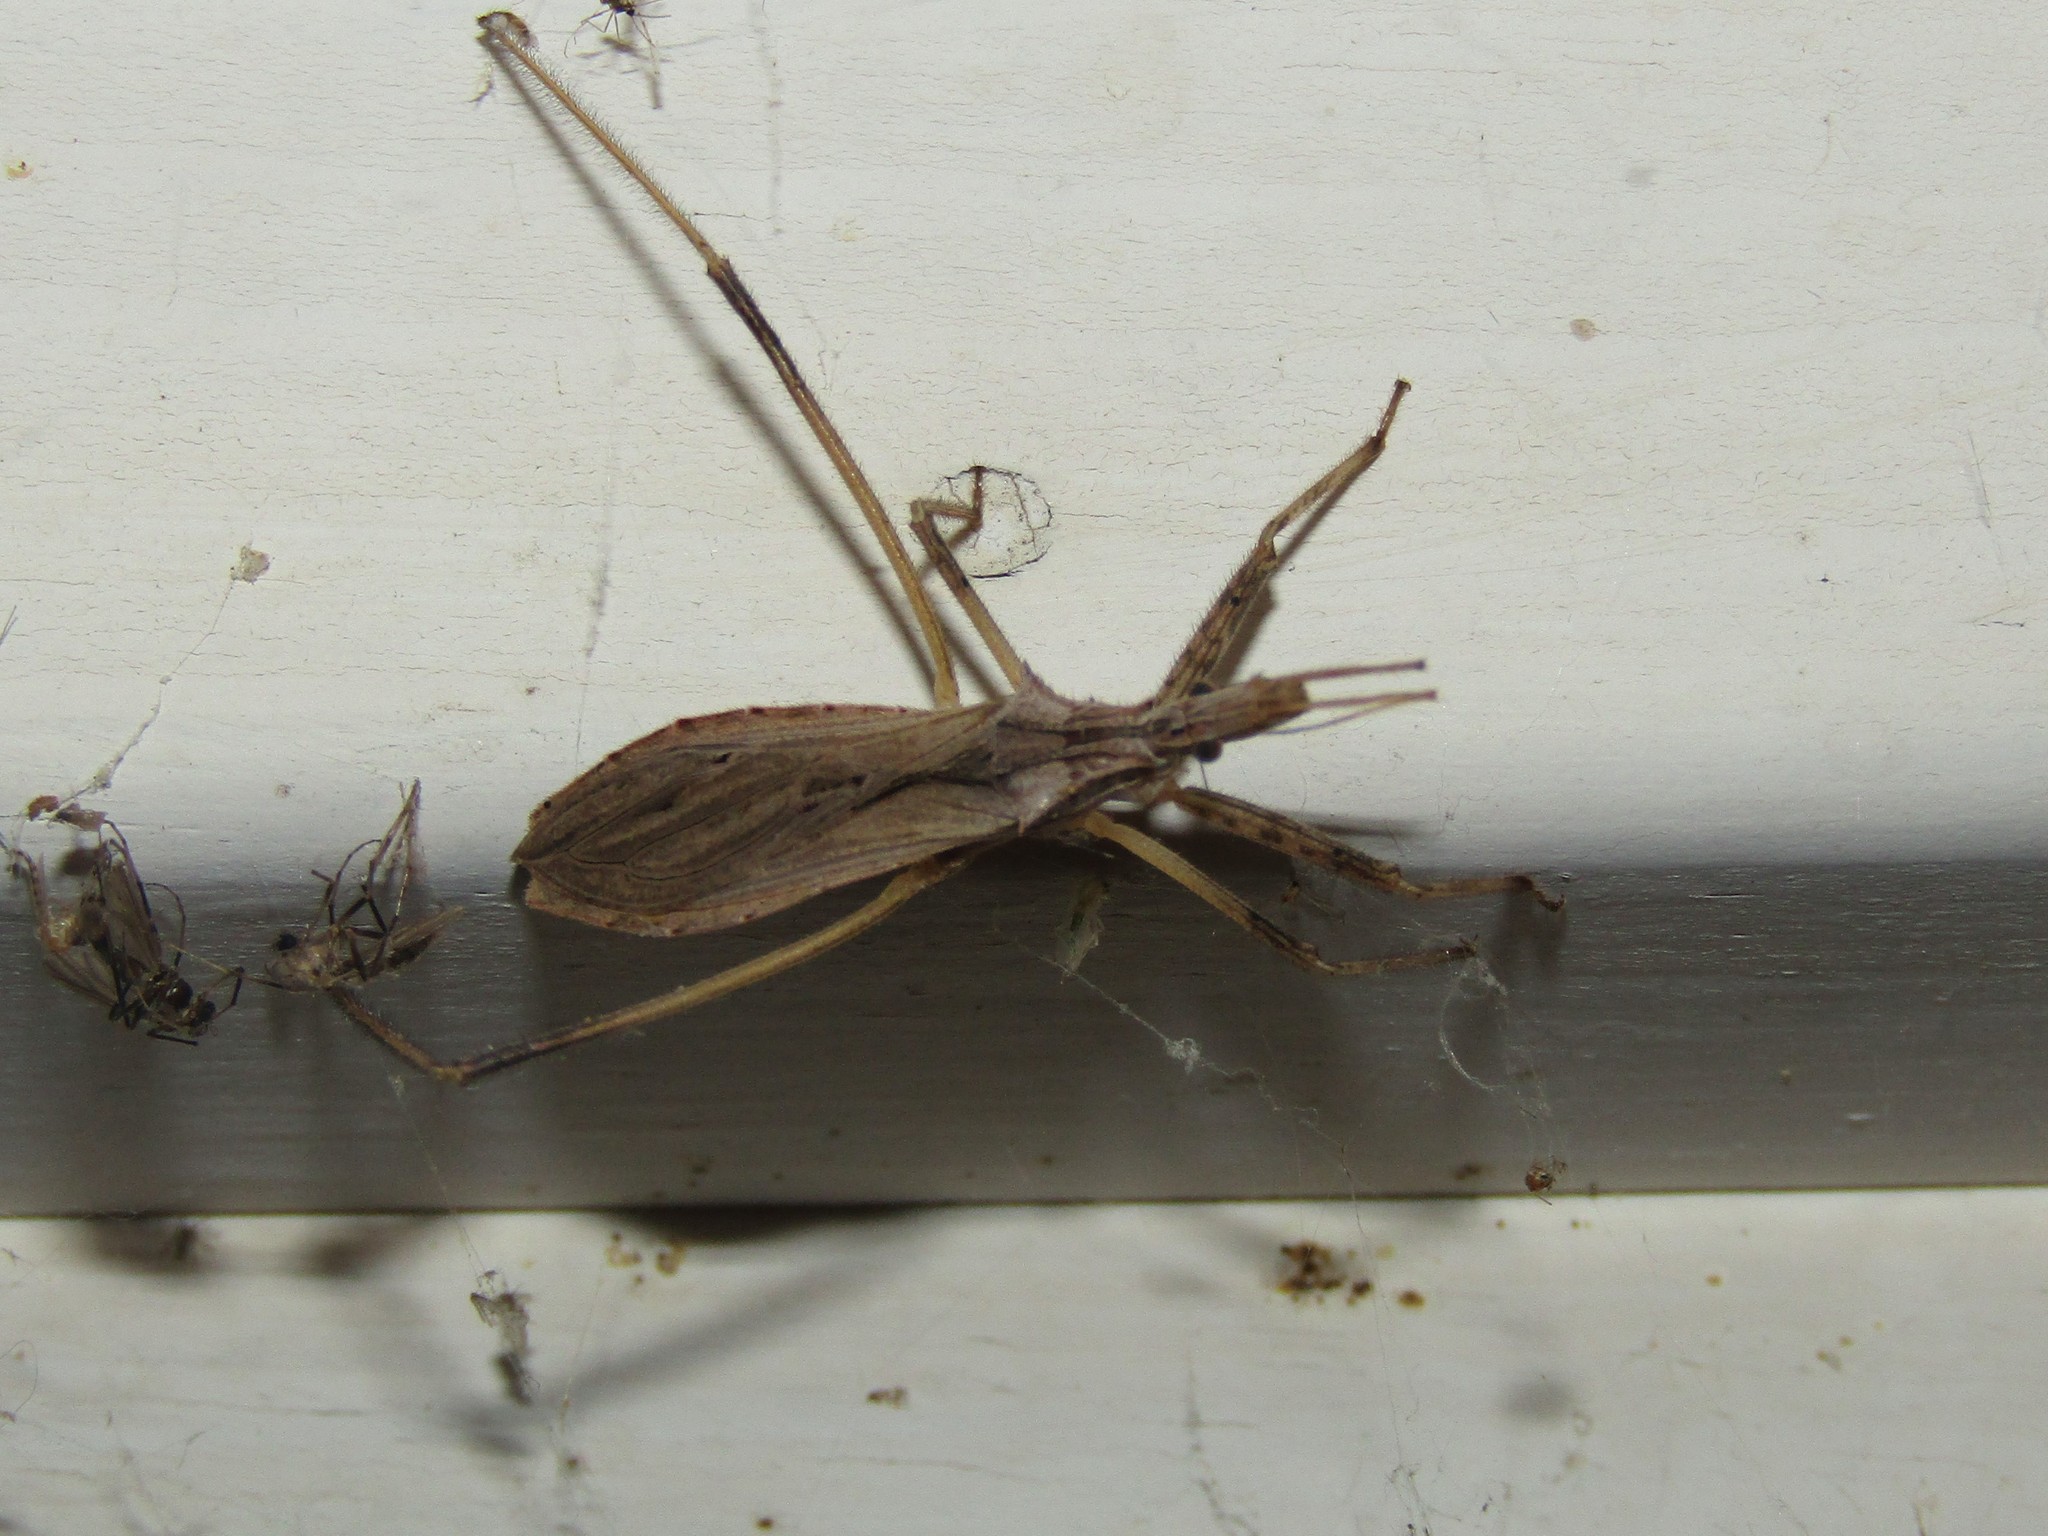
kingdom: Animalia
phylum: Arthropoda
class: Insecta
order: Hemiptera
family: Reduviidae
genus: Stenopoda
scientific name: Stenopoda spinulosa
